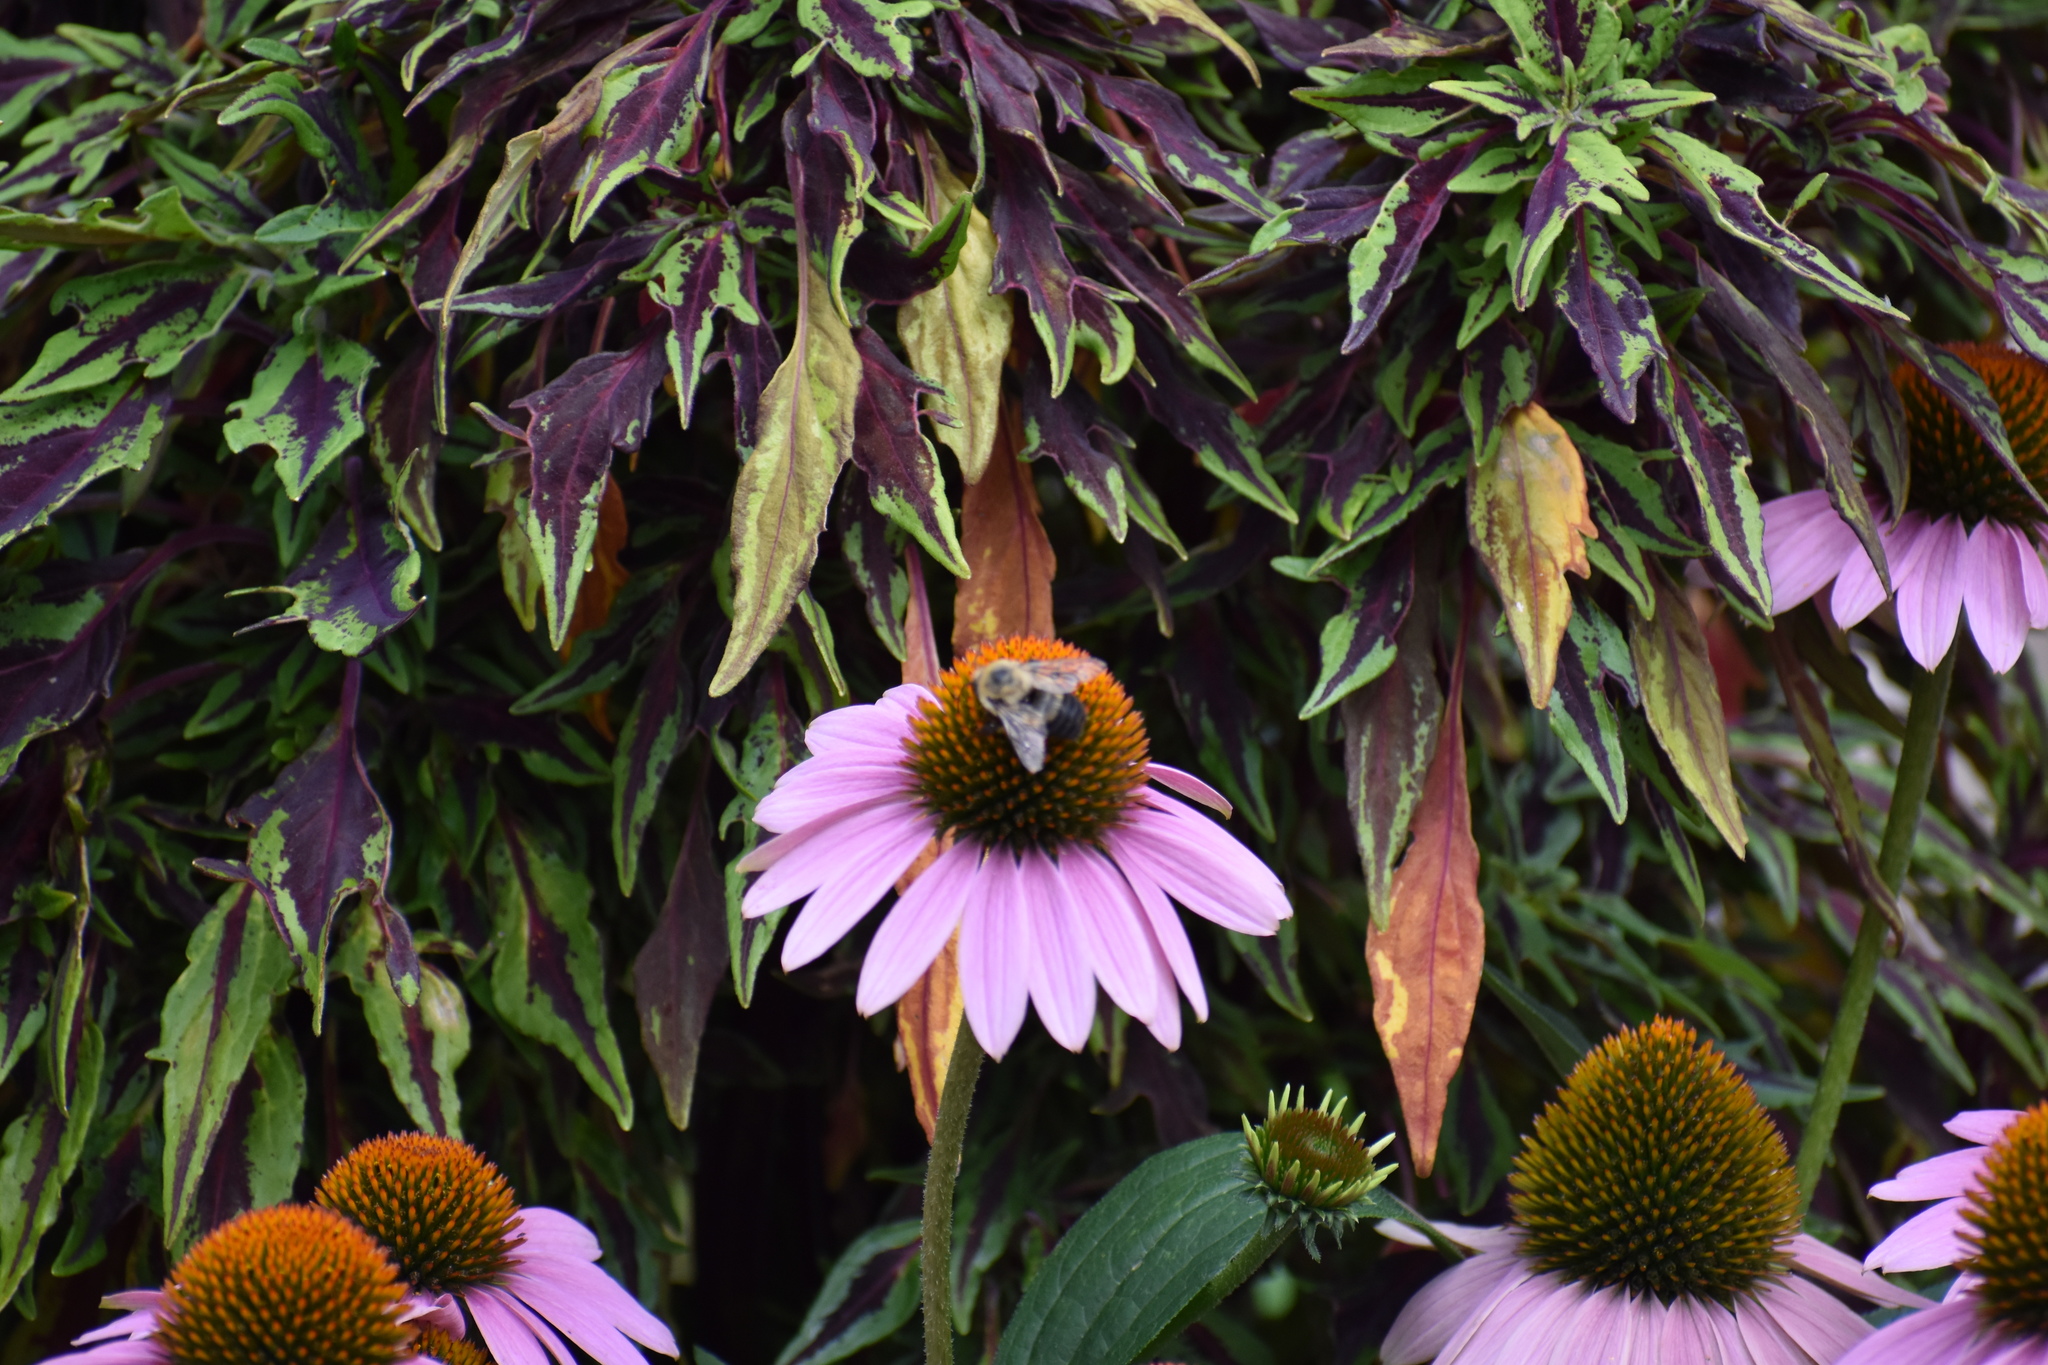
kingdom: Animalia
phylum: Arthropoda
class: Insecta
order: Hymenoptera
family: Apidae
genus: Bombus
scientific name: Bombus griseocollis
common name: Brown-belted bumble bee
